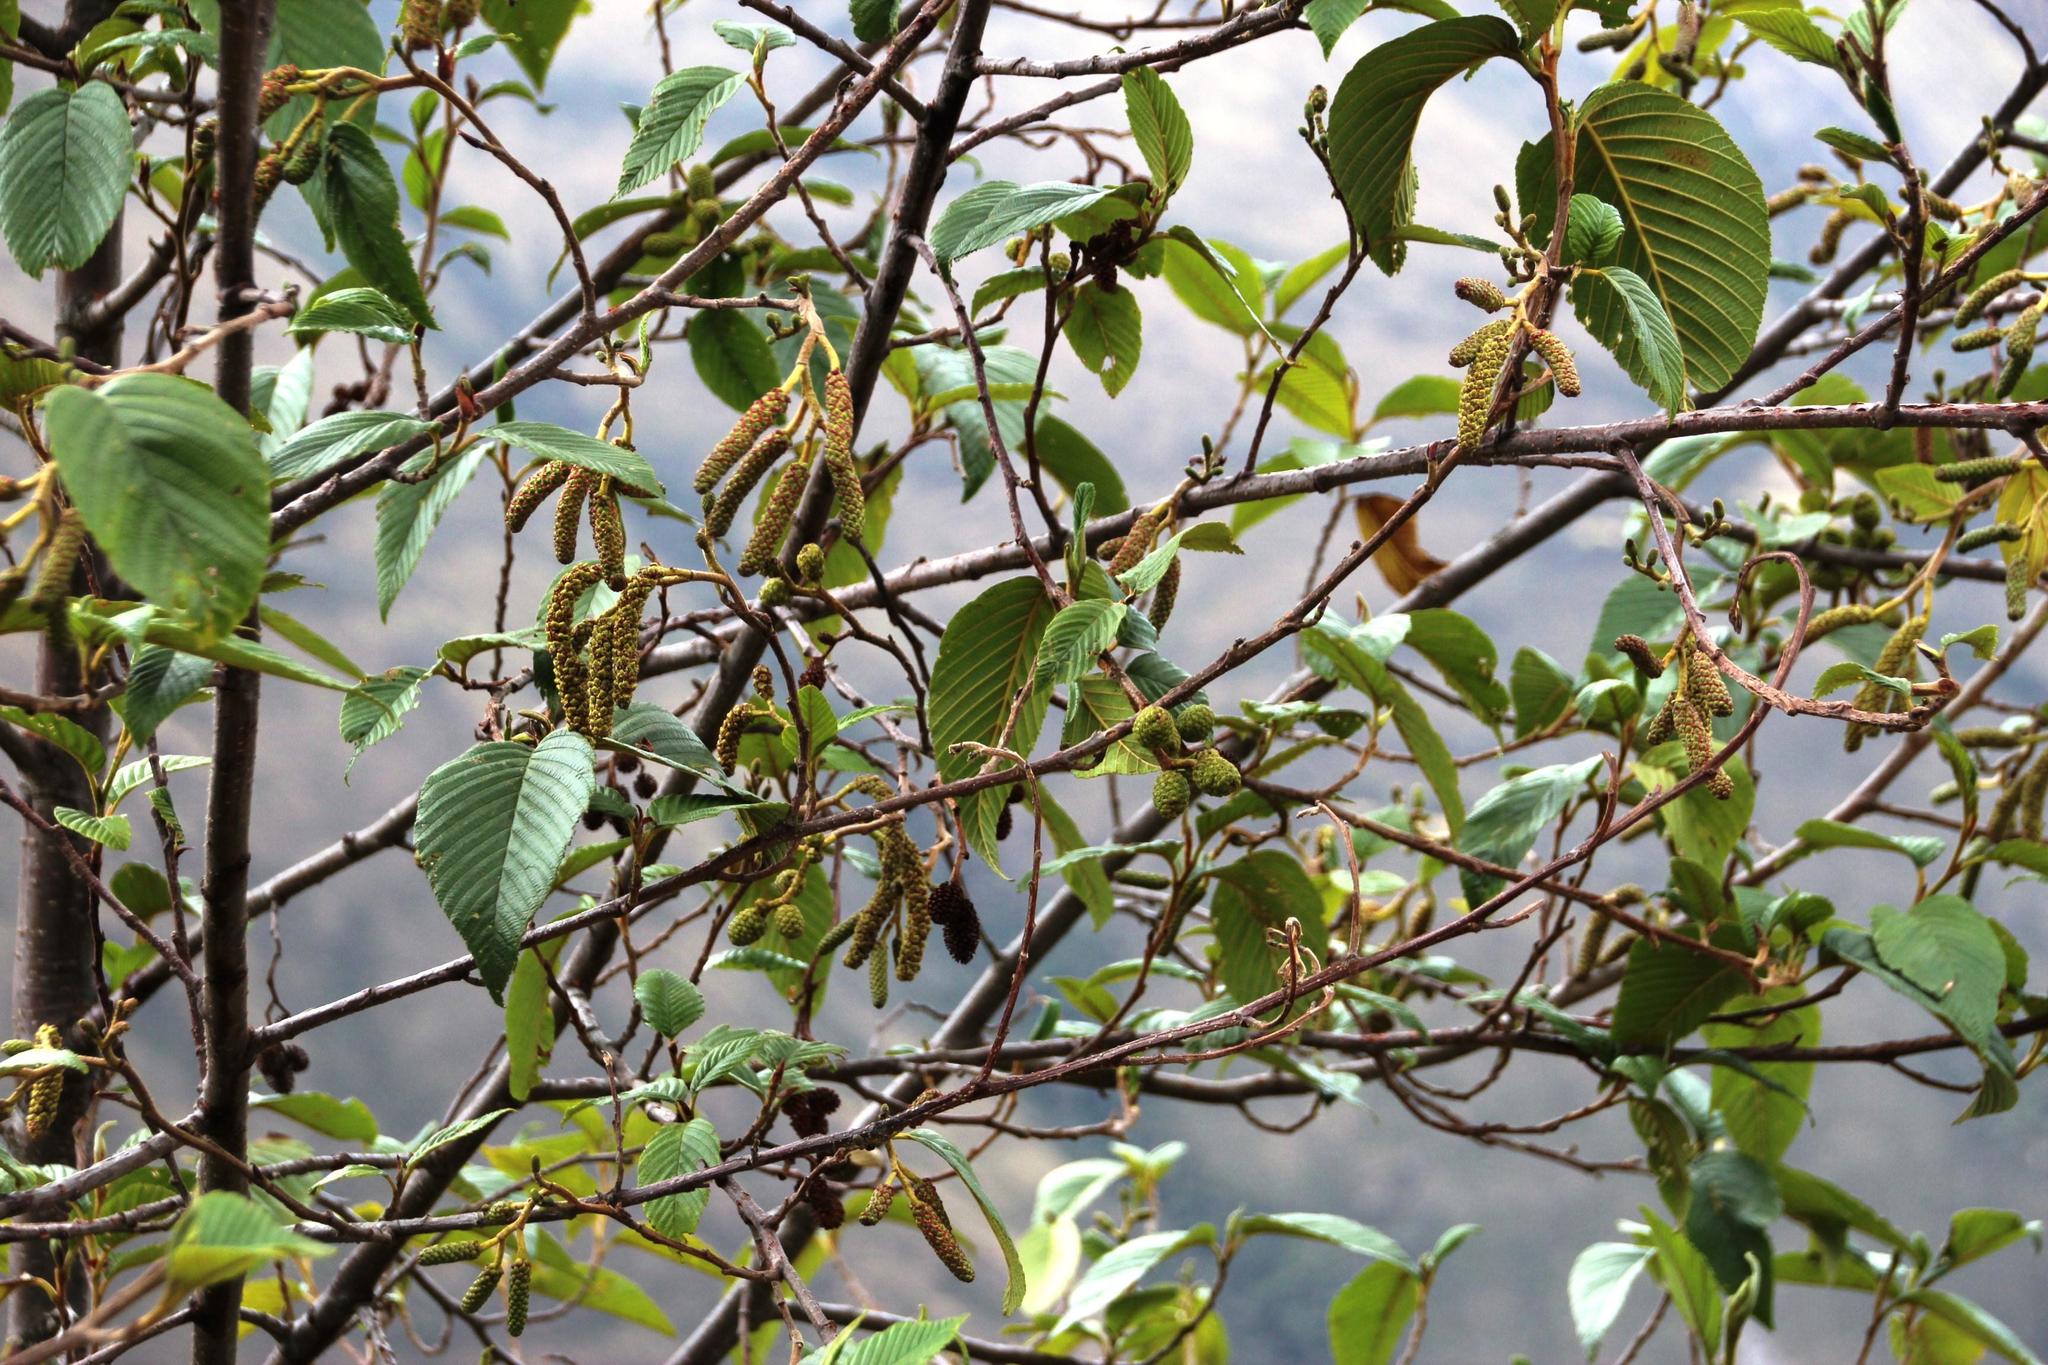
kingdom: Plantae
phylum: Tracheophyta
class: Magnoliopsida
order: Fagales
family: Betulaceae
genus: Alnus
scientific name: Alnus acuminata
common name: Alder
